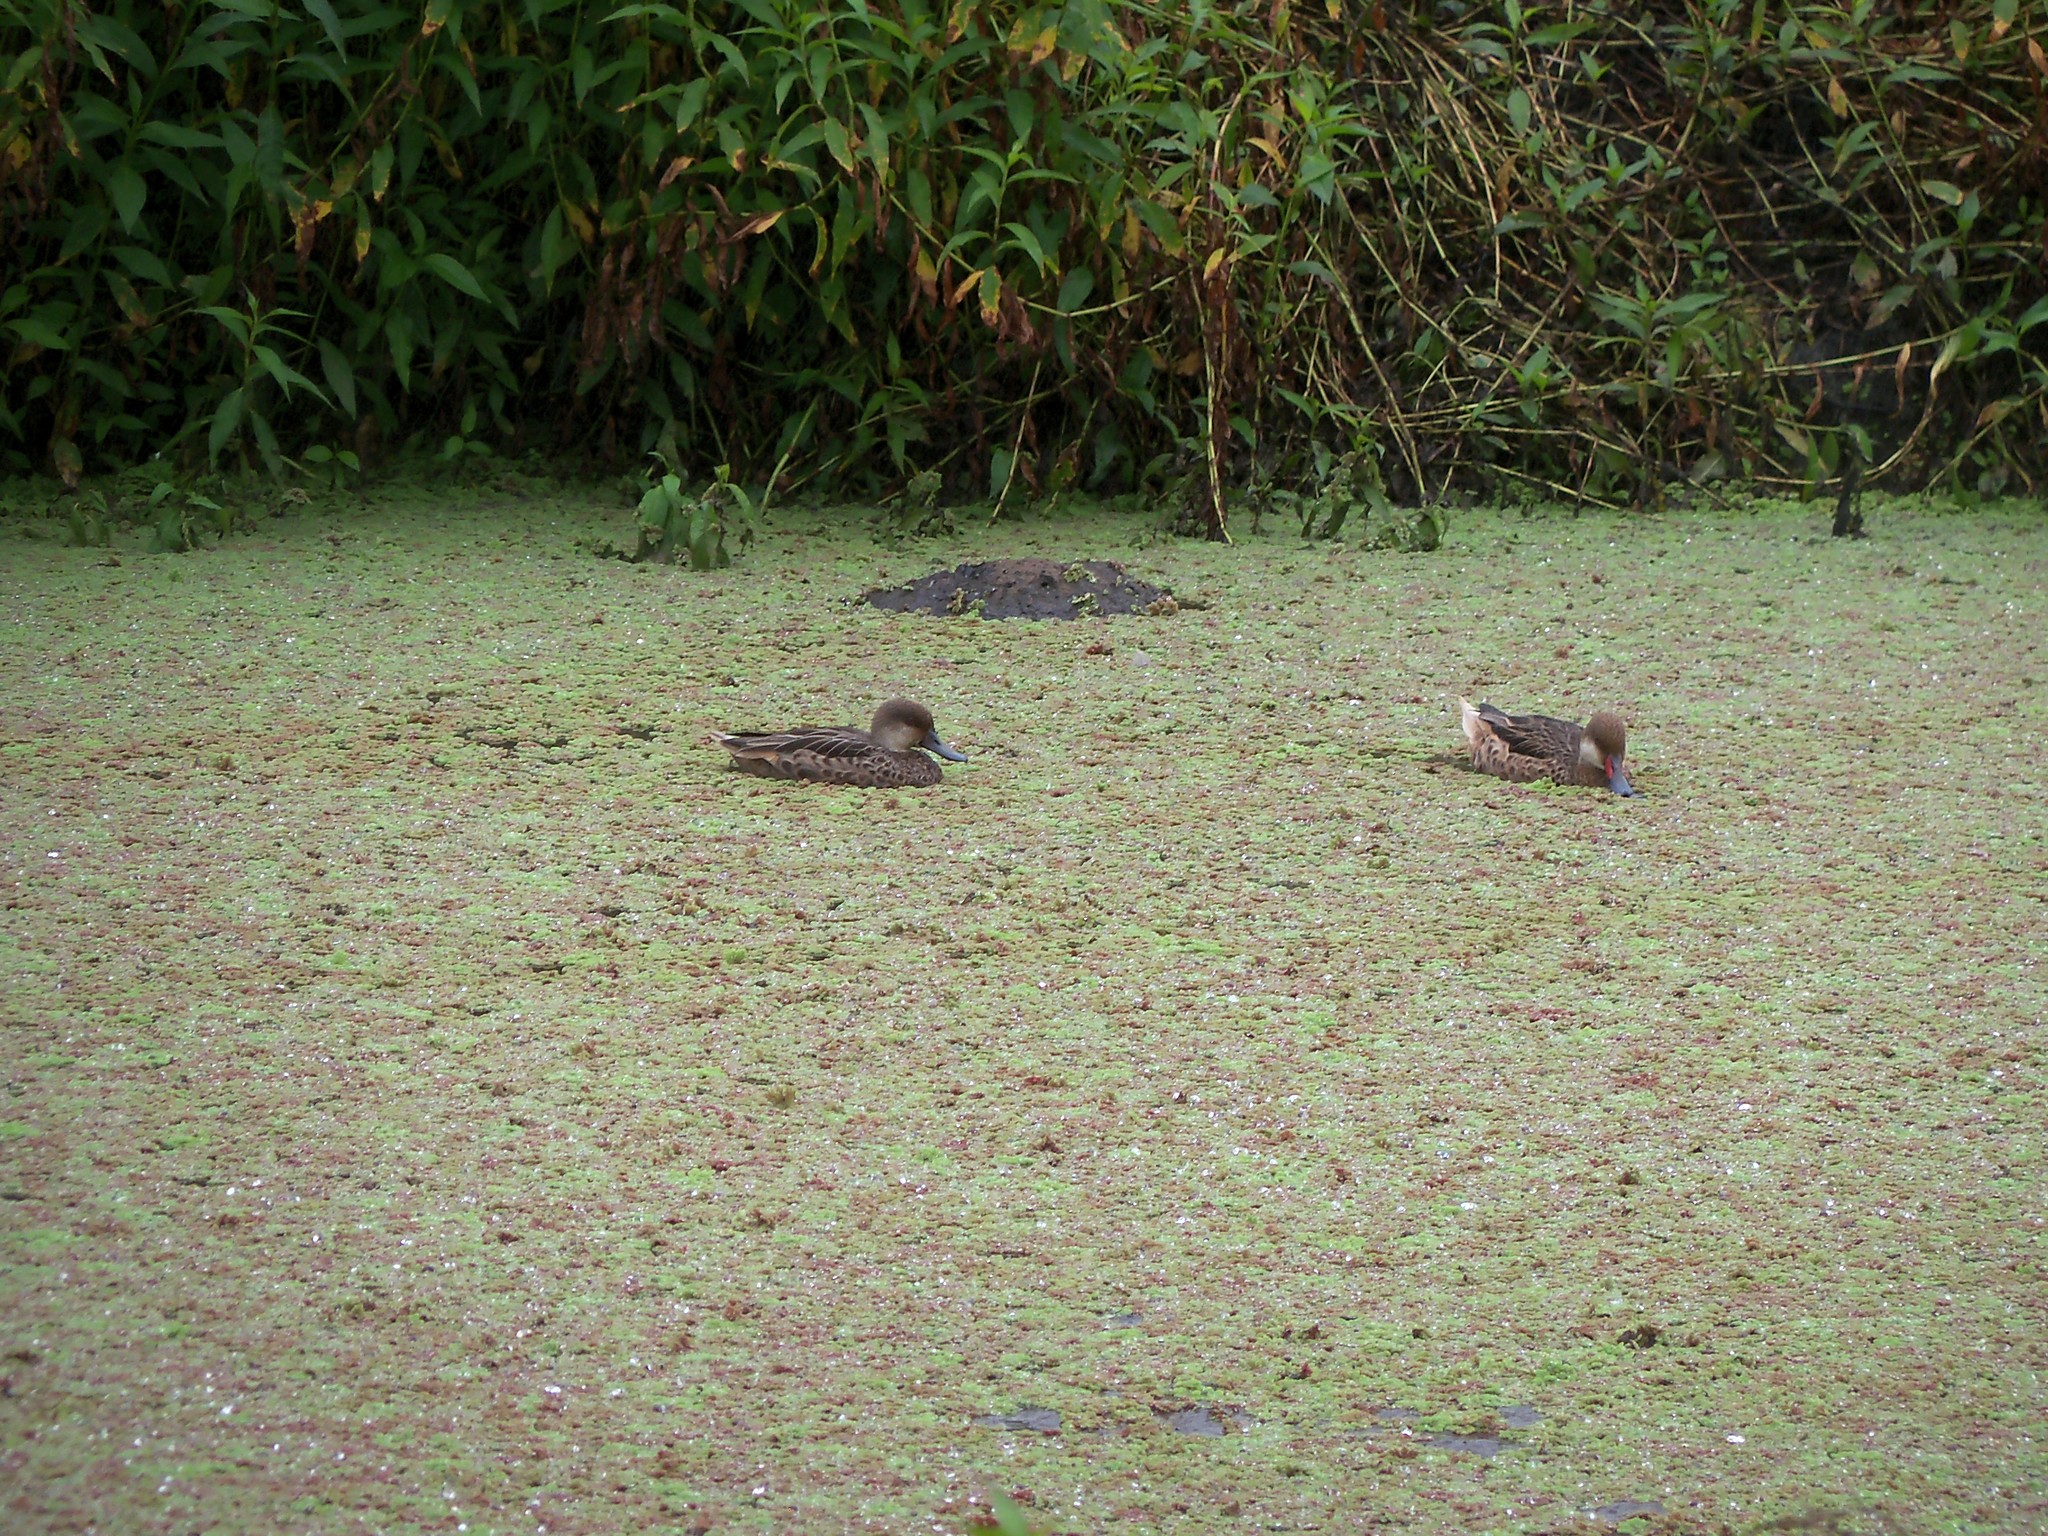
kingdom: Animalia
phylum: Chordata
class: Aves
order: Anseriformes
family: Anatidae
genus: Anas
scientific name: Anas bahamensis
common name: White-cheeked pintail
